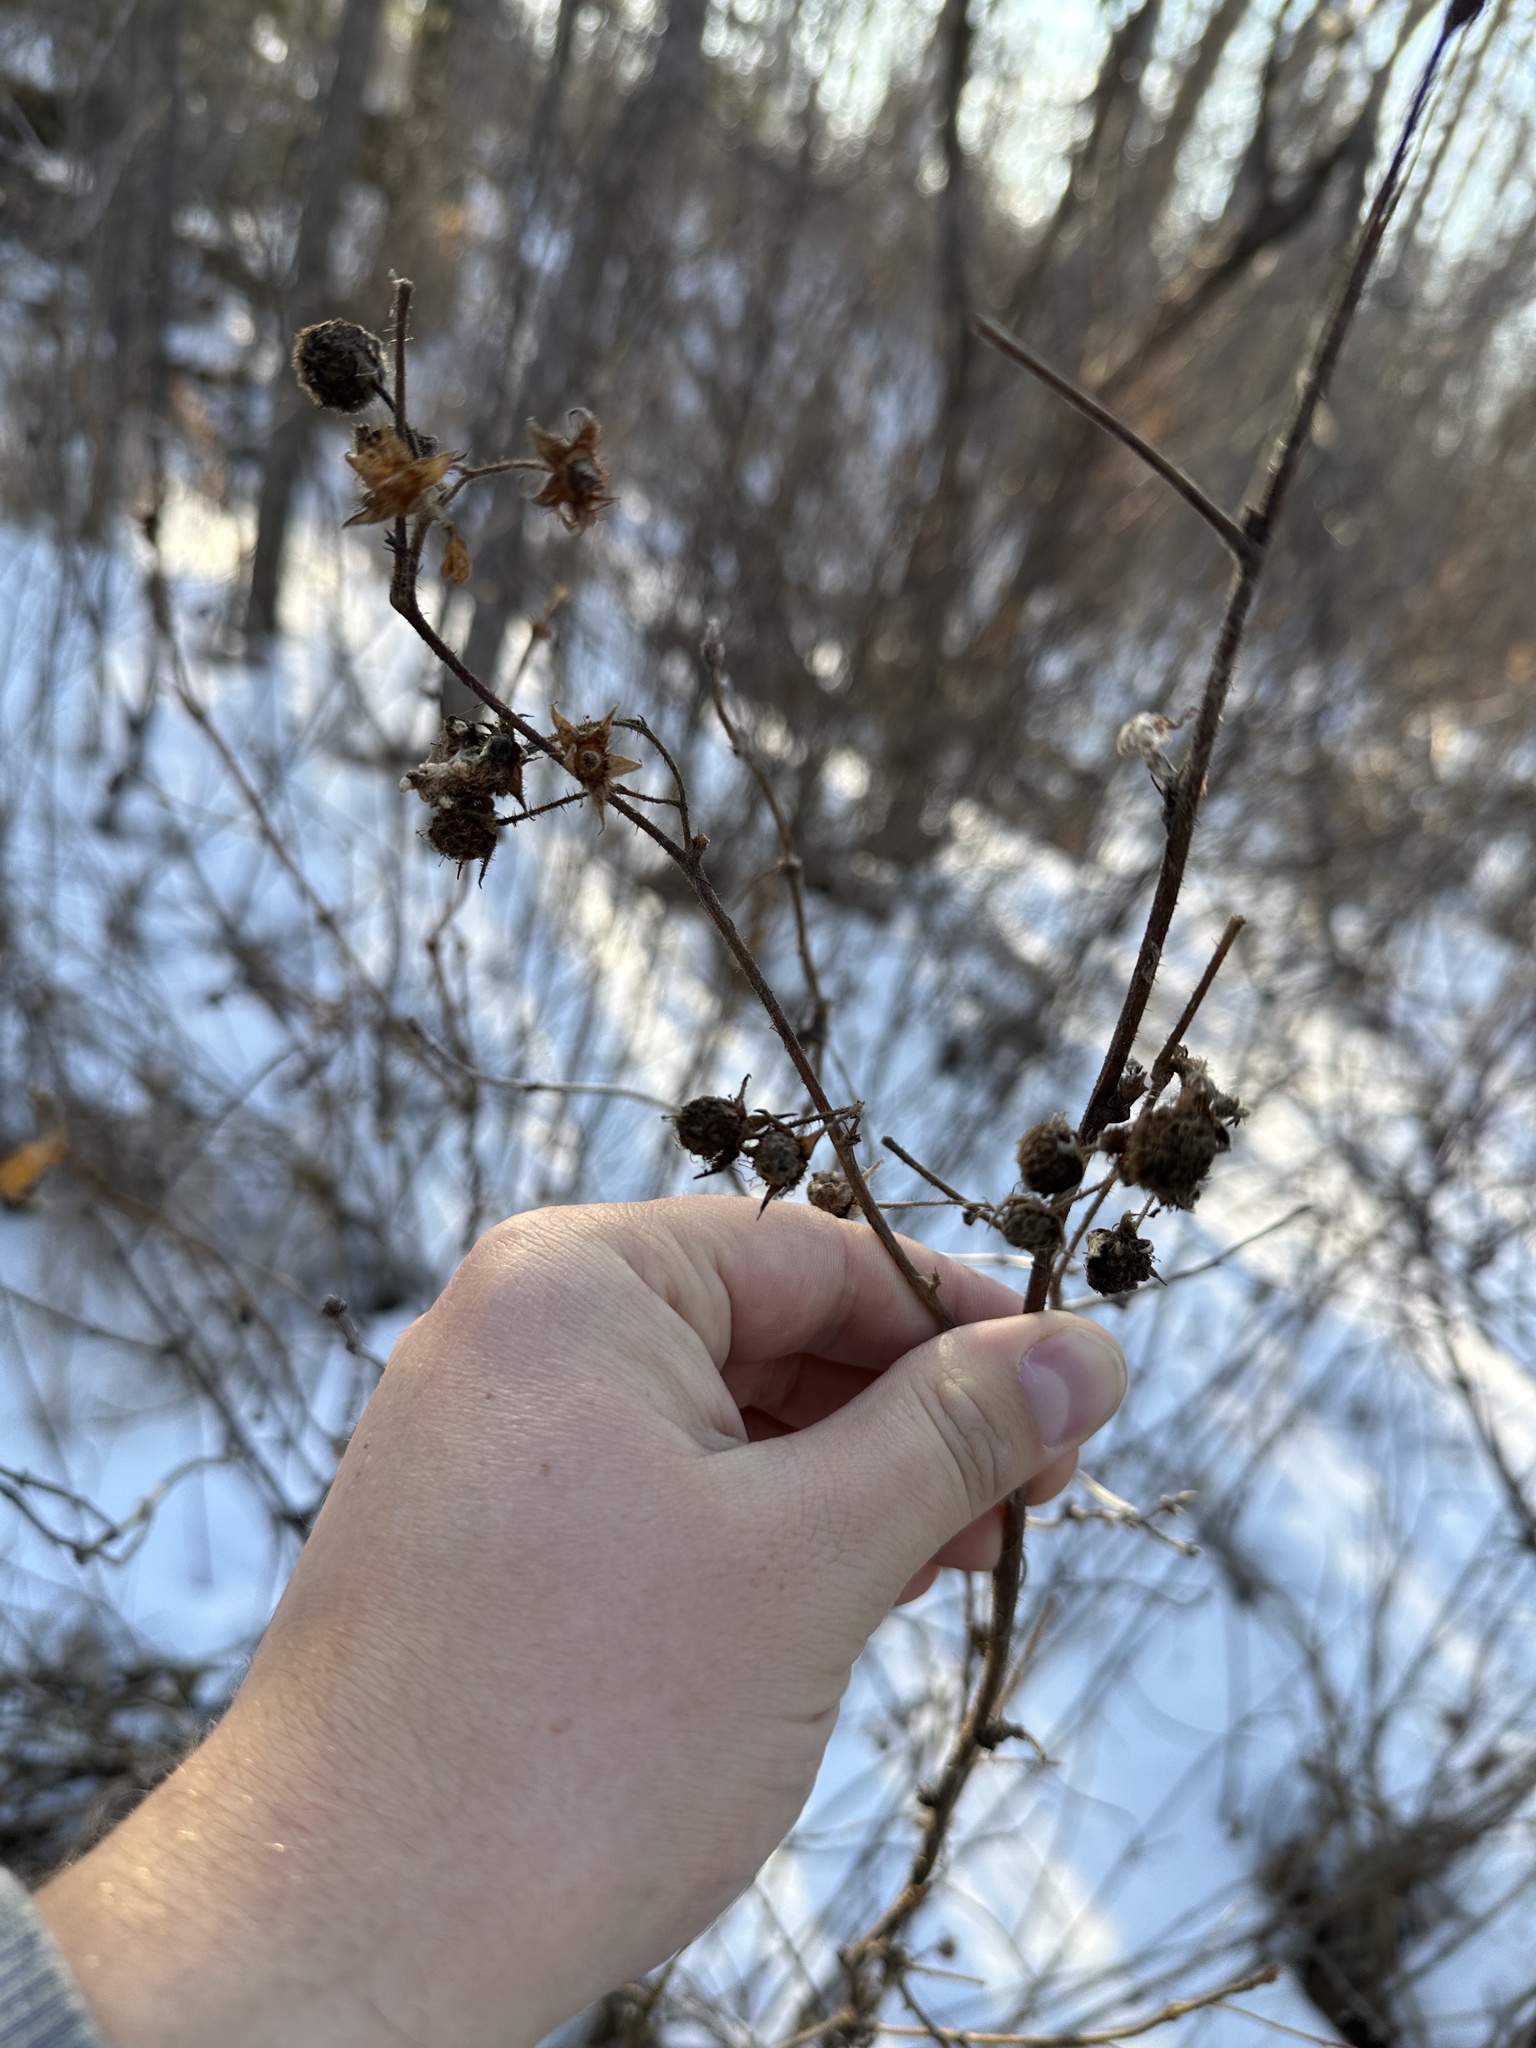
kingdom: Plantae
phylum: Tracheophyta
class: Magnoliopsida
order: Rosales
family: Rosaceae
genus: Rubus
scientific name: Rubus idaeus
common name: Raspberry
